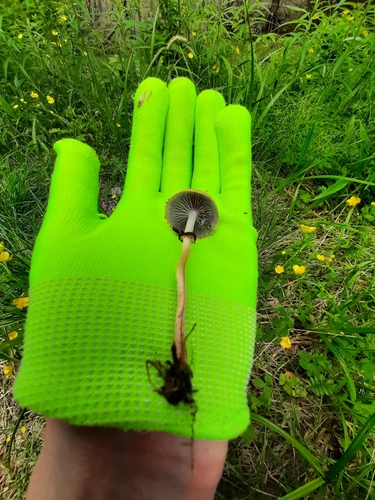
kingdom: Fungi
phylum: Basidiomycota
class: Agaricomycetes
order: Agaricales
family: Strophariaceae
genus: Leratiomyces
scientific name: Leratiomyces magnivelaris
